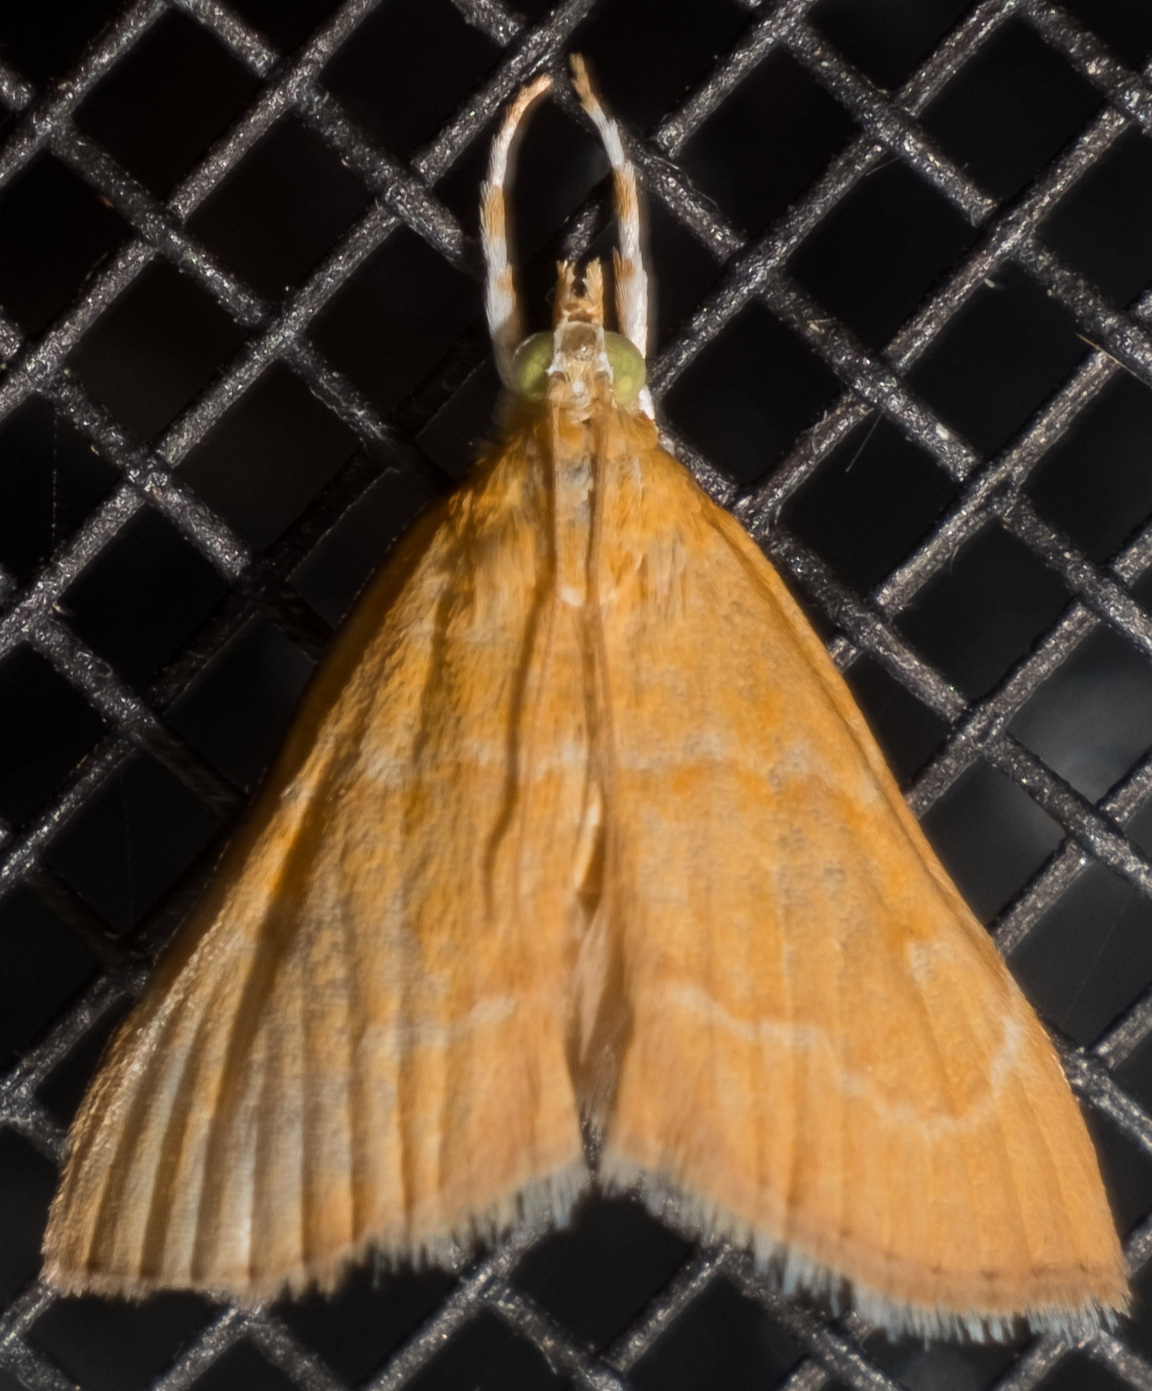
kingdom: Animalia
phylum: Arthropoda
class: Insecta
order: Lepidoptera
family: Crambidae
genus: Glaphyria
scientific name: Glaphyria invisalis
